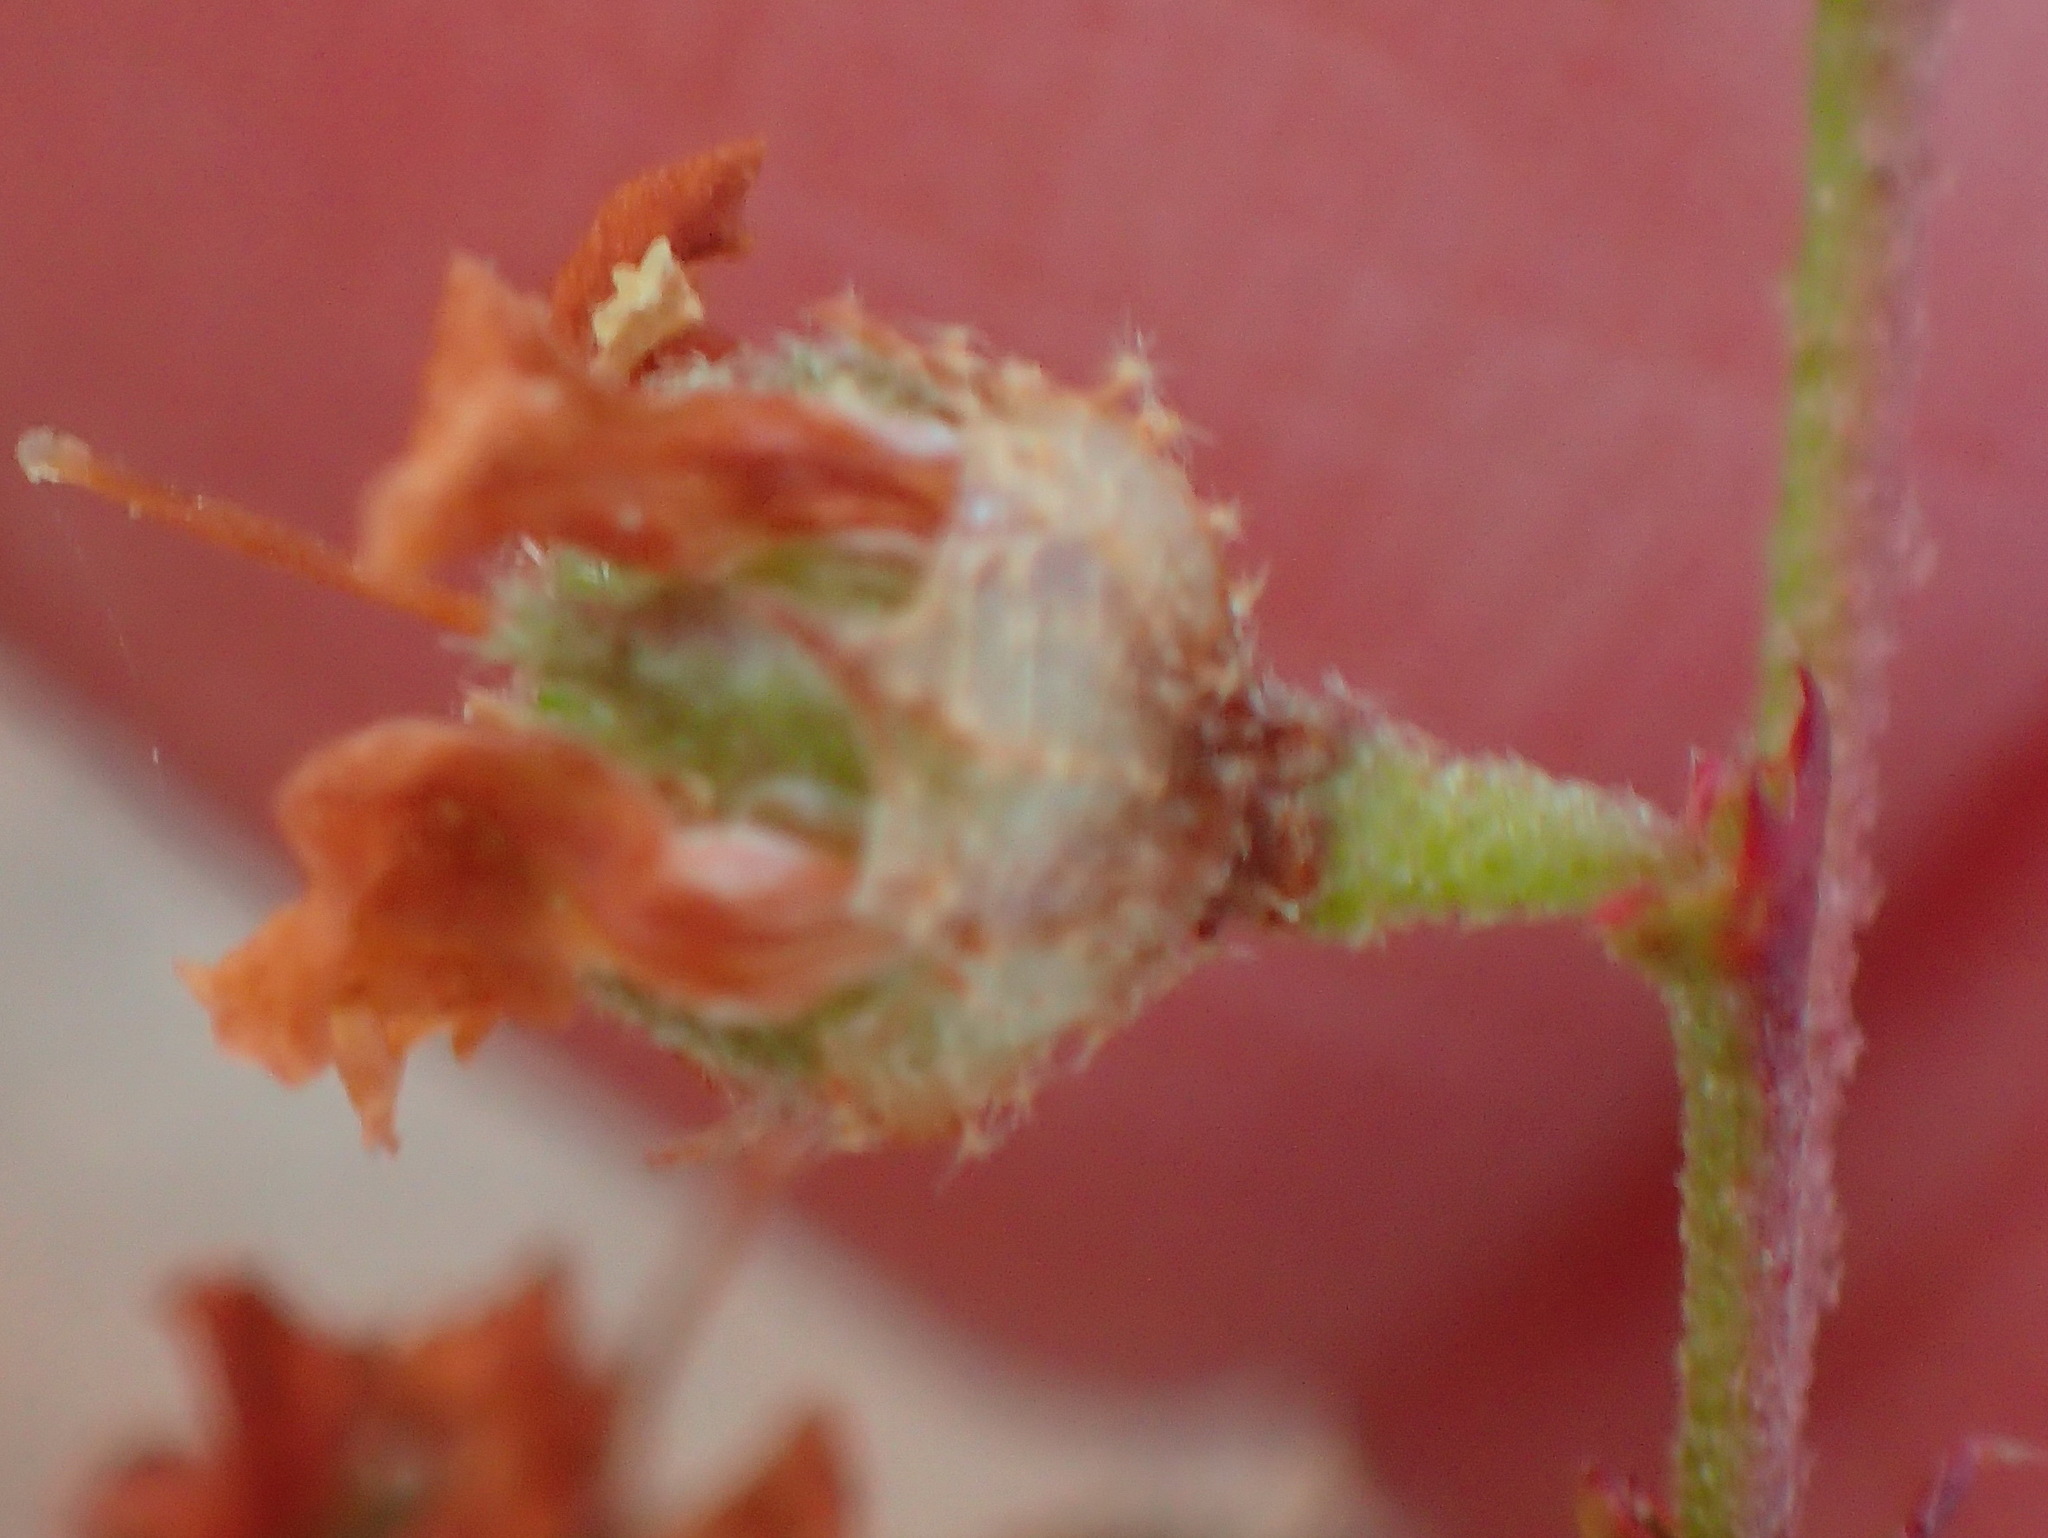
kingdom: Plantae
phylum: Tracheophyta
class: Magnoliopsida
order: Malvales
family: Malvaceae
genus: Hermannia
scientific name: Hermannia alnifolia
